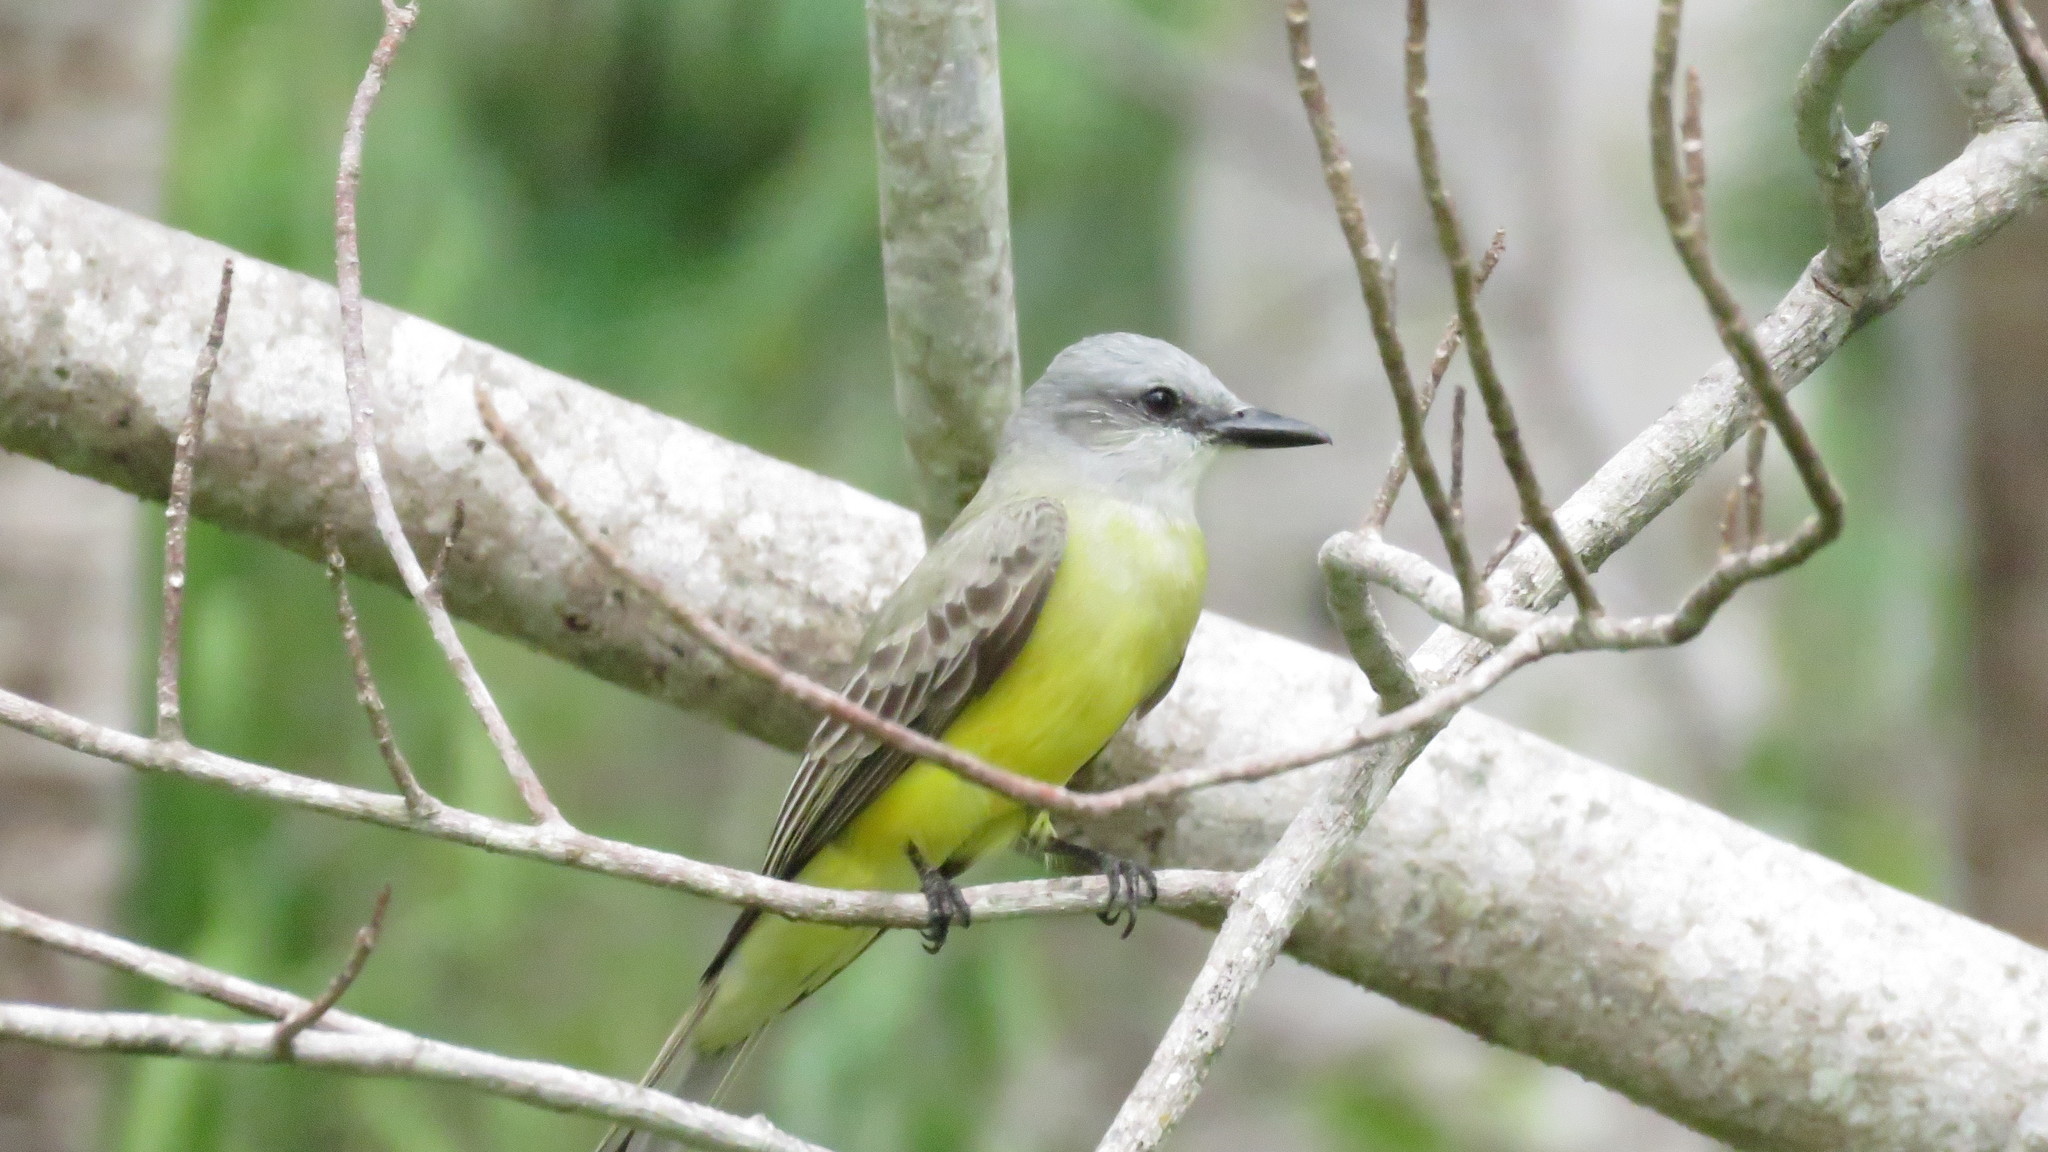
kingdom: Animalia
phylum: Chordata
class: Aves
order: Passeriformes
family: Tyrannidae
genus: Tyrannus
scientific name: Tyrannus couchii
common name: Couch's kingbird
